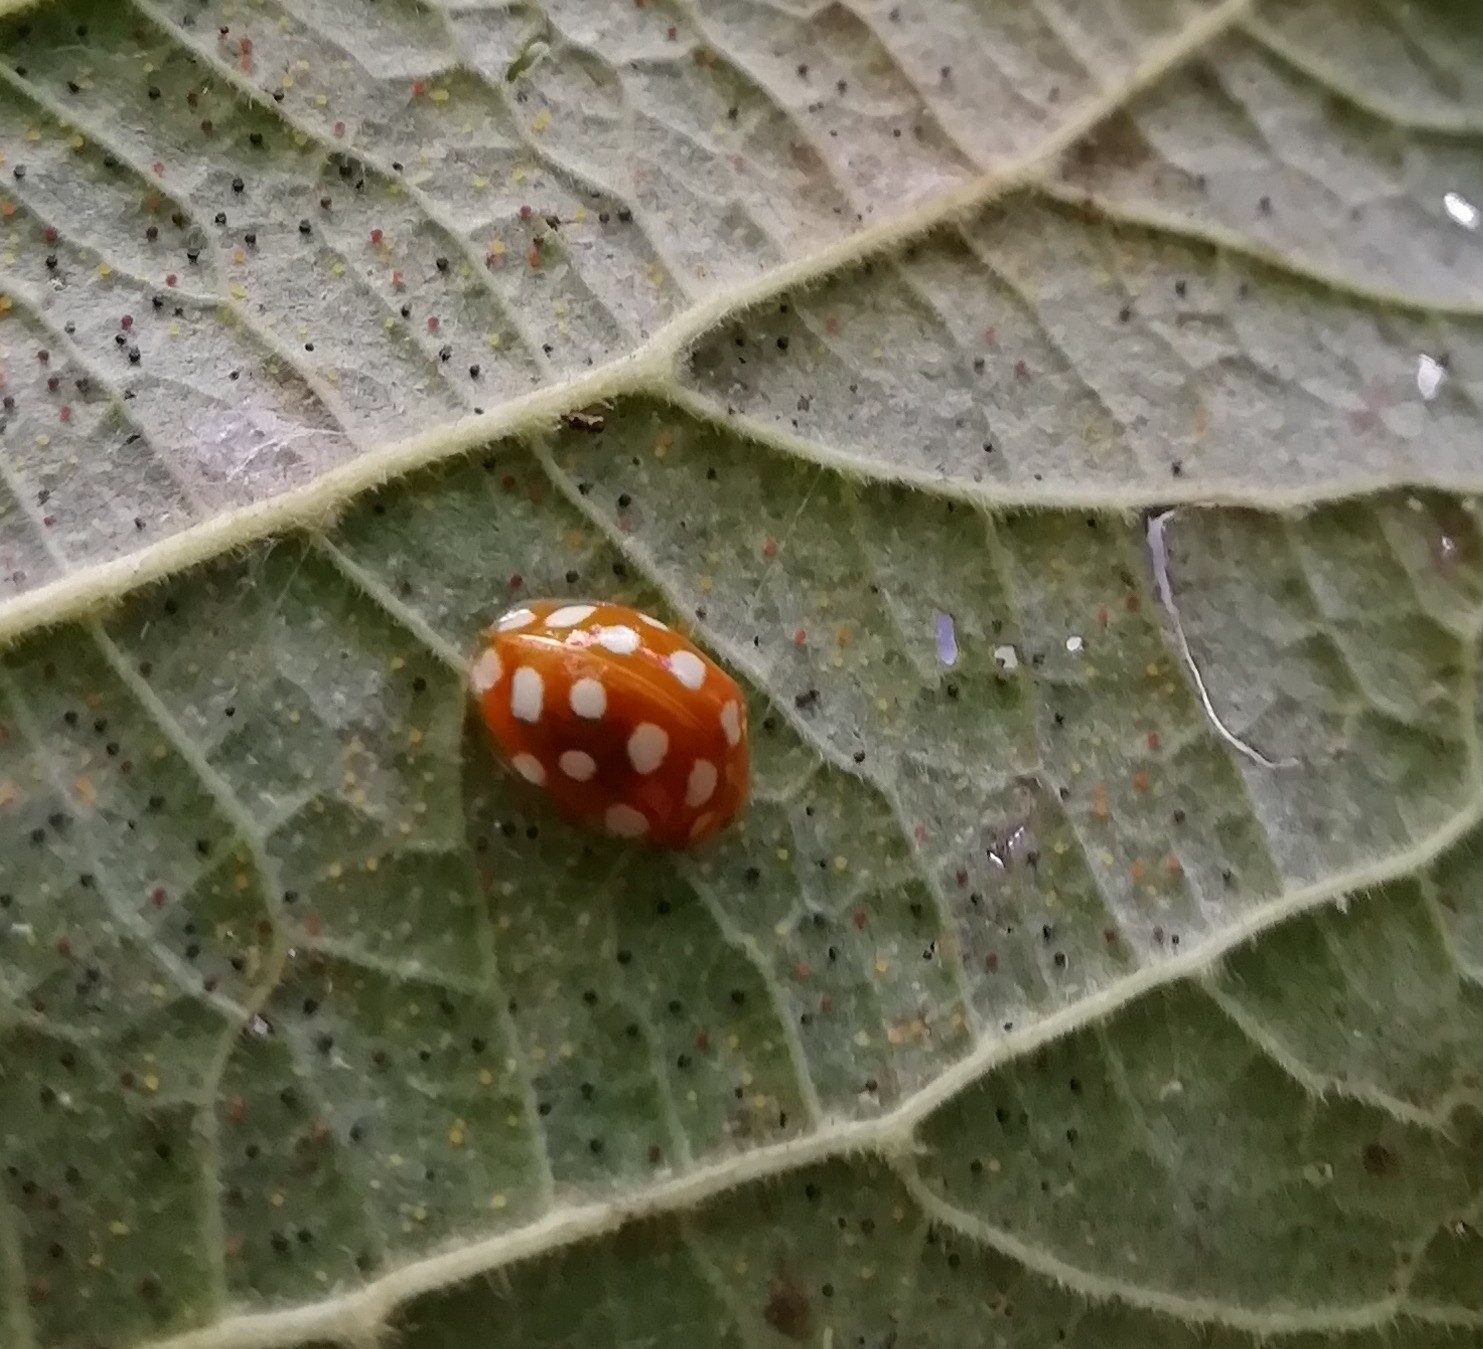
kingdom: Animalia
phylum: Arthropoda
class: Insecta
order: Coleoptera
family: Coccinellidae
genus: Halyzia
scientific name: Halyzia sedecimguttata
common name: Orange ladybird
